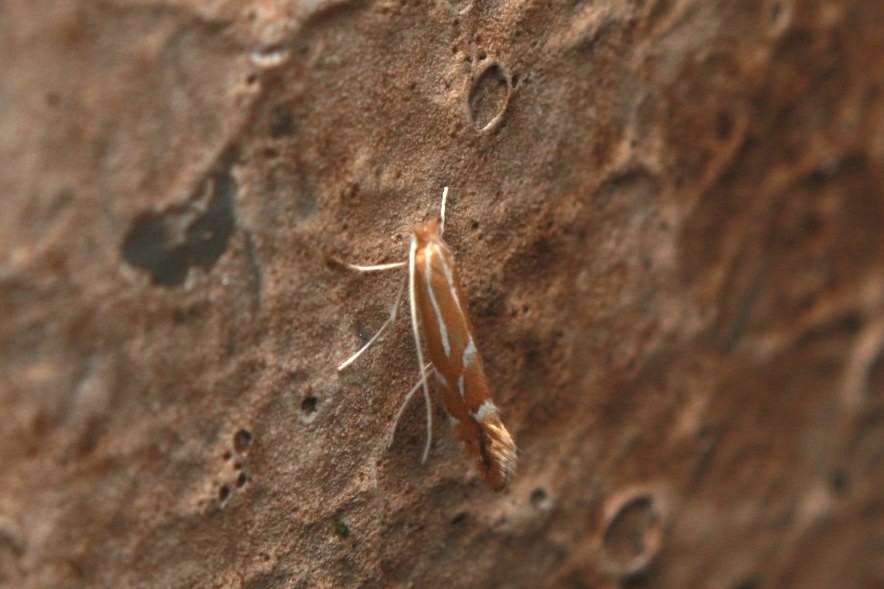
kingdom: Animalia
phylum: Arthropoda
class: Insecta
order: Lepidoptera
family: Gracillariidae
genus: Phyllonorycter
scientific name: Phyllonorycter leucographella
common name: Firethorn leaf-miner
